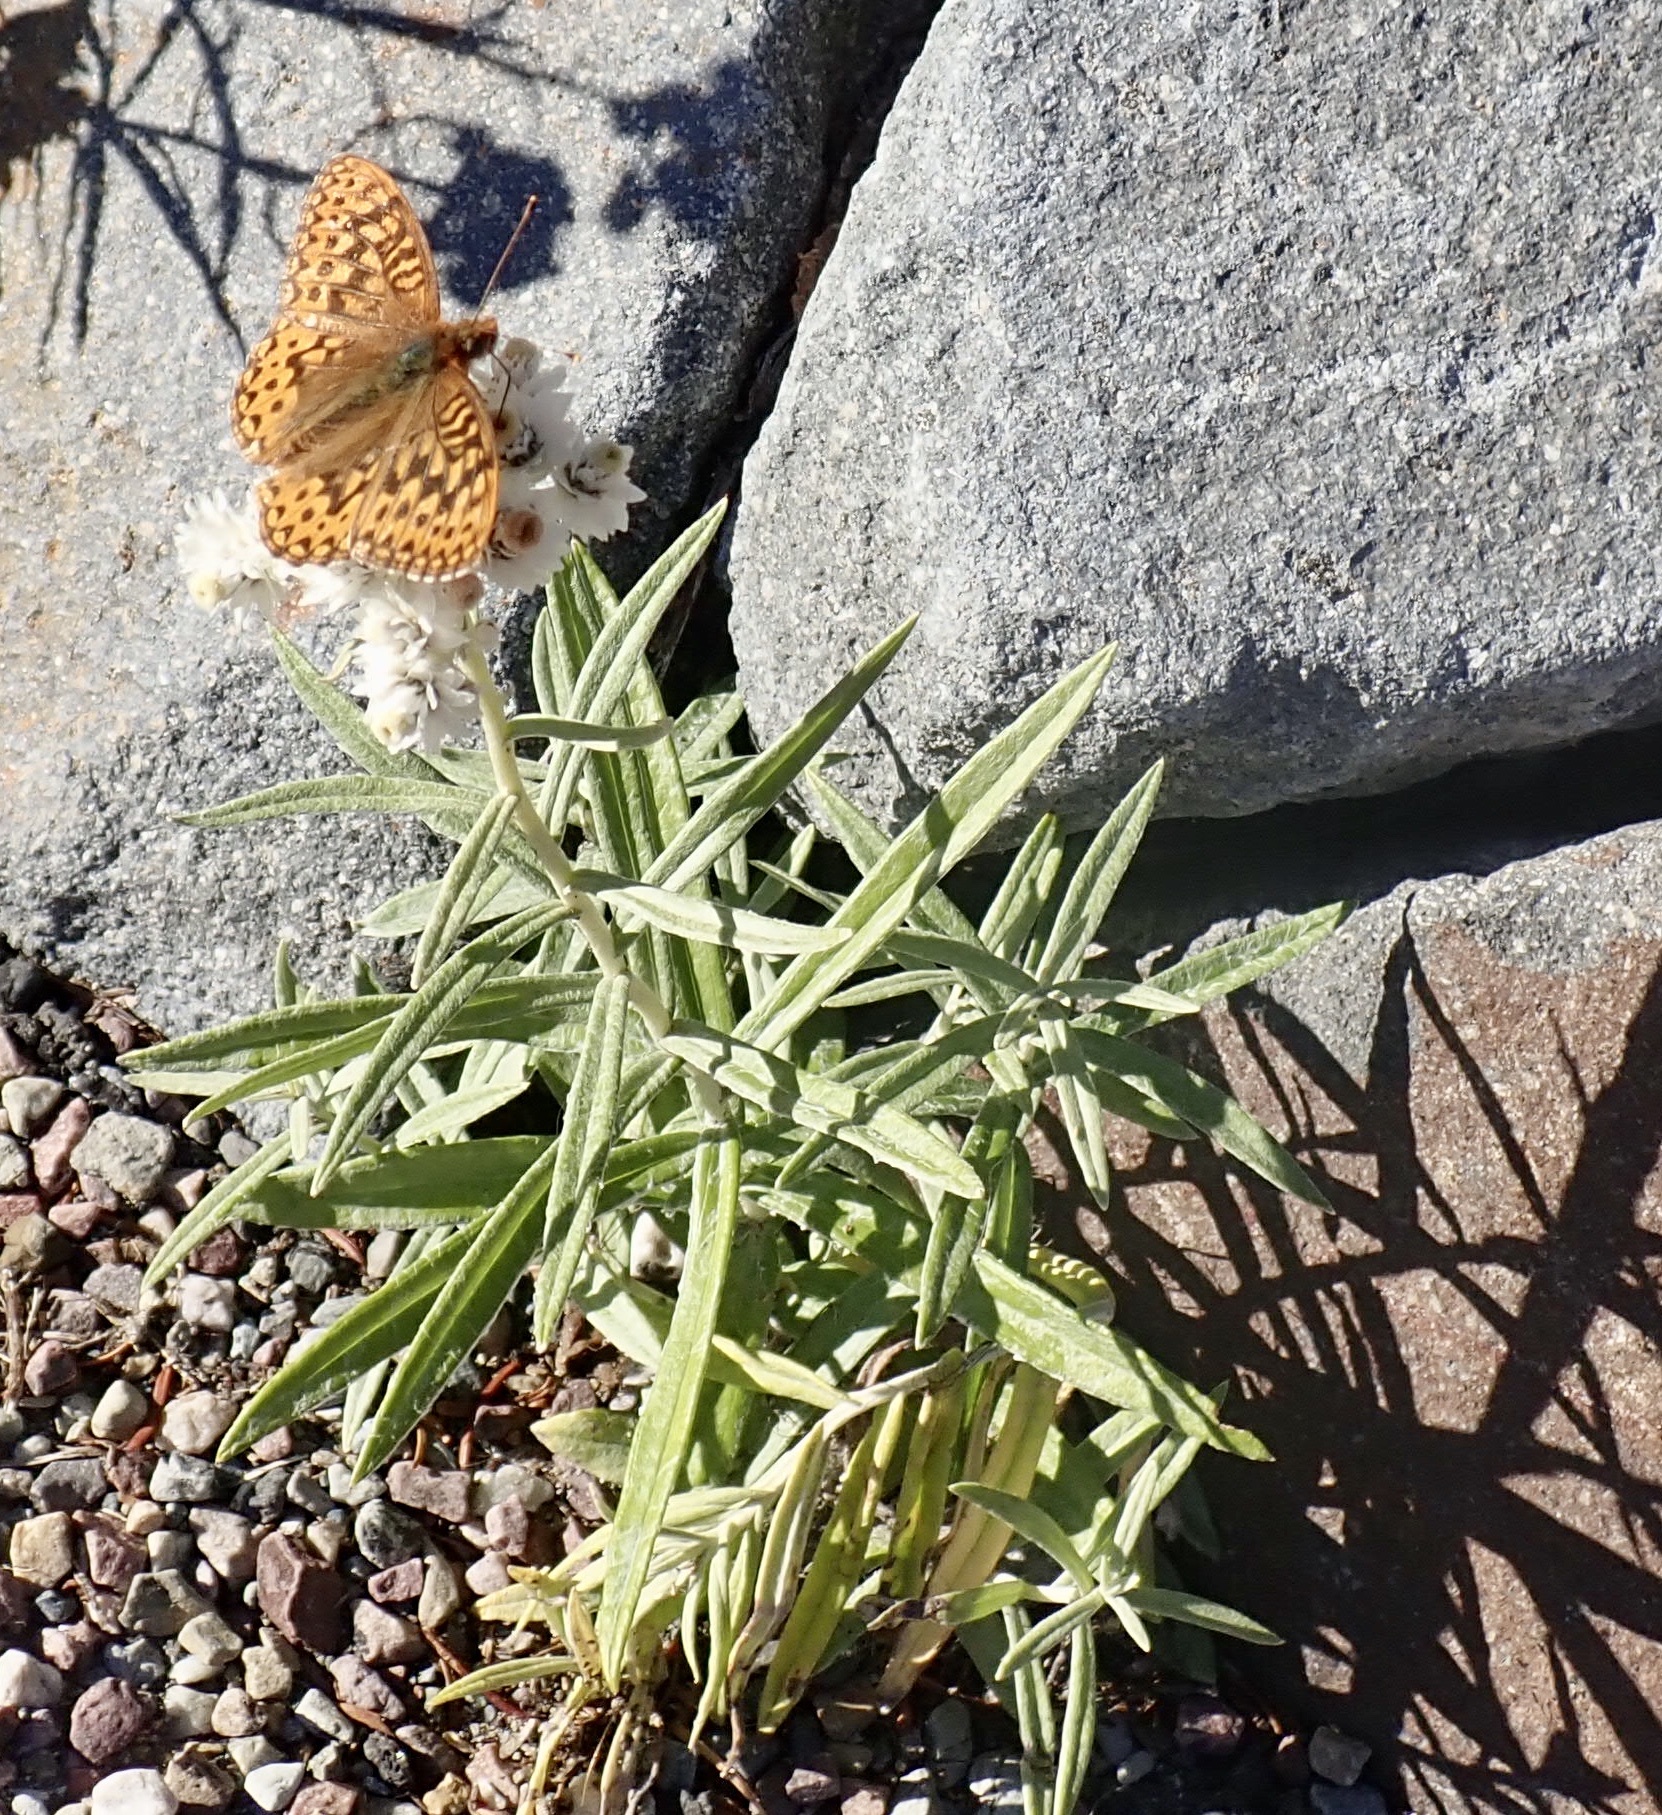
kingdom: Animalia
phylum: Arthropoda
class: Insecta
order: Lepidoptera
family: Nymphalidae
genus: Speyeria
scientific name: Speyeria hydaspe
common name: Hydaspe fritillary
